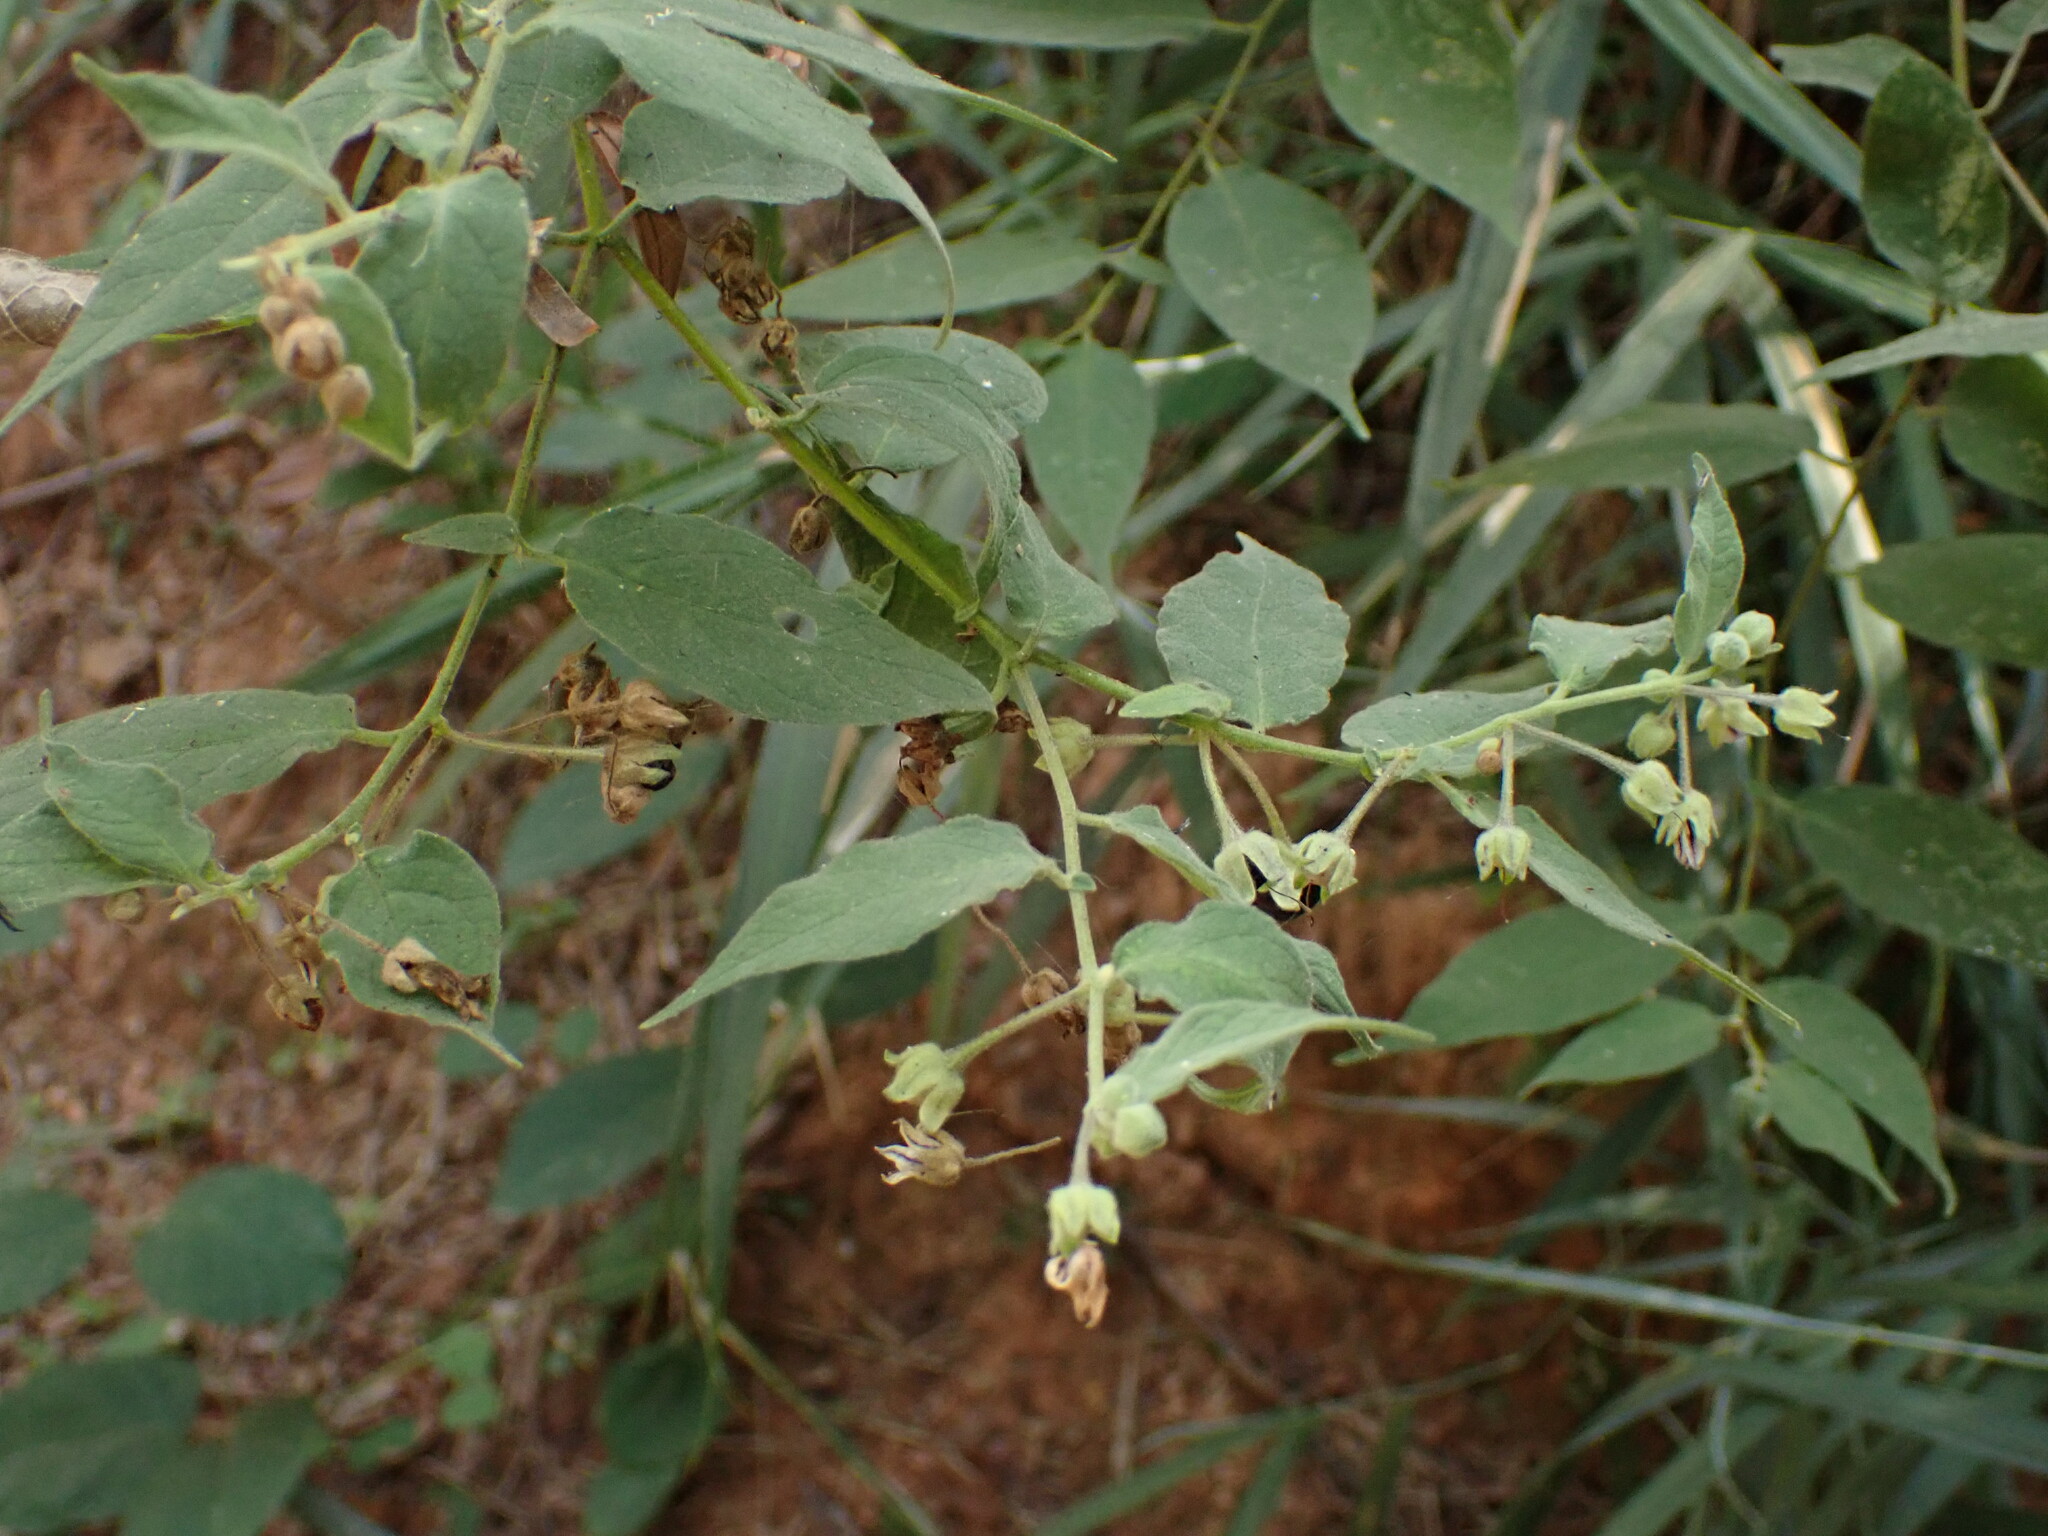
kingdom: Plantae
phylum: Tracheophyta
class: Magnoliopsida
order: Solanales
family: Solanaceae
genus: Solanum
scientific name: Solanum didymum
